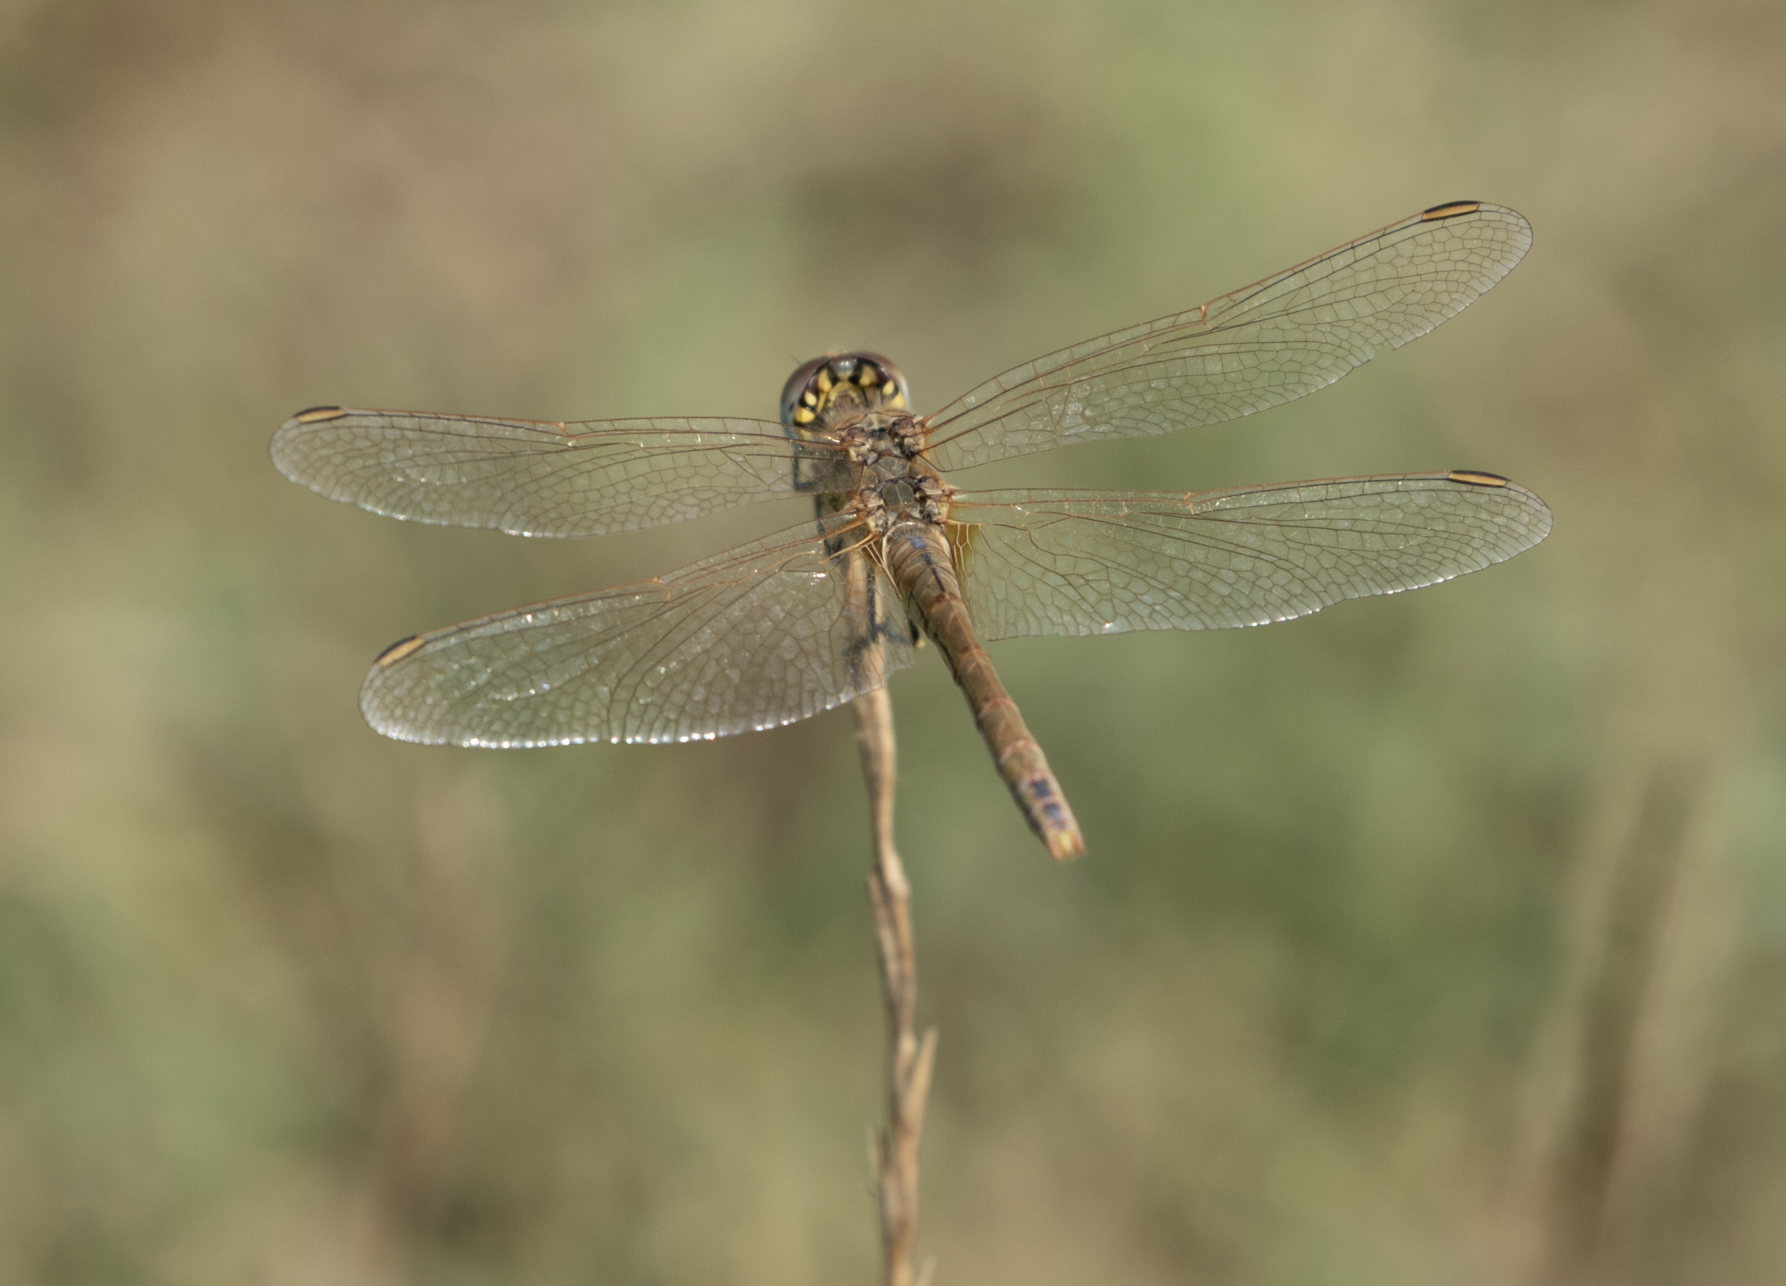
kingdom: Animalia
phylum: Arthropoda
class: Insecta
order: Odonata
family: Libellulidae
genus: Sympetrum
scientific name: Sympetrum fonscolombii
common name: Red-veined darter
